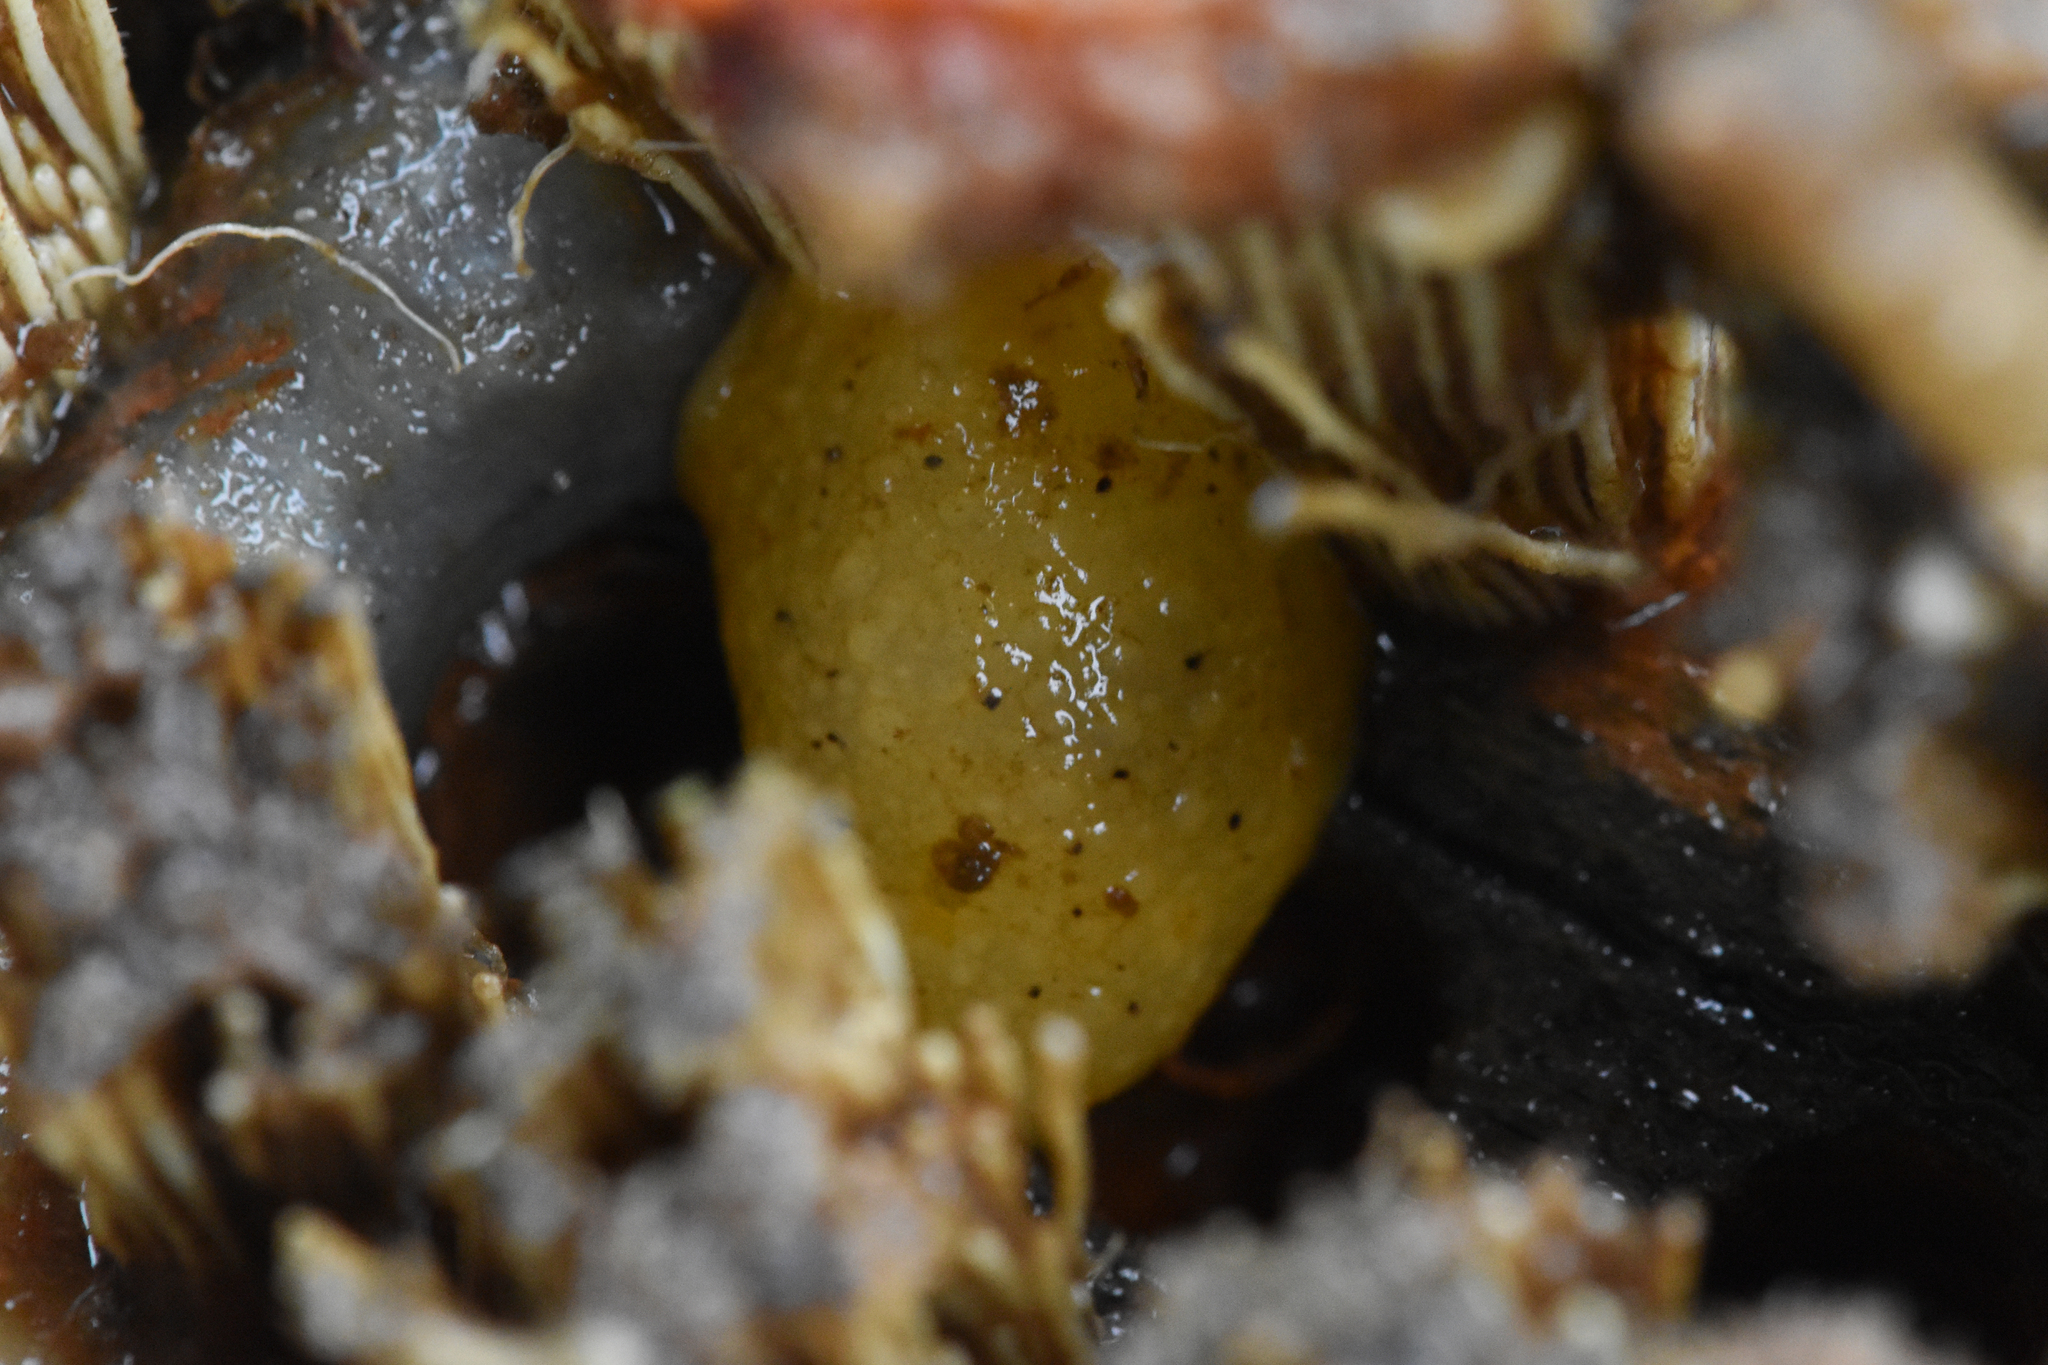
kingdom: Animalia
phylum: Mollusca
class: Gastropoda
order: Nudibranchia
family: Dorididae
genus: Doris
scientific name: Doris montereyensis
